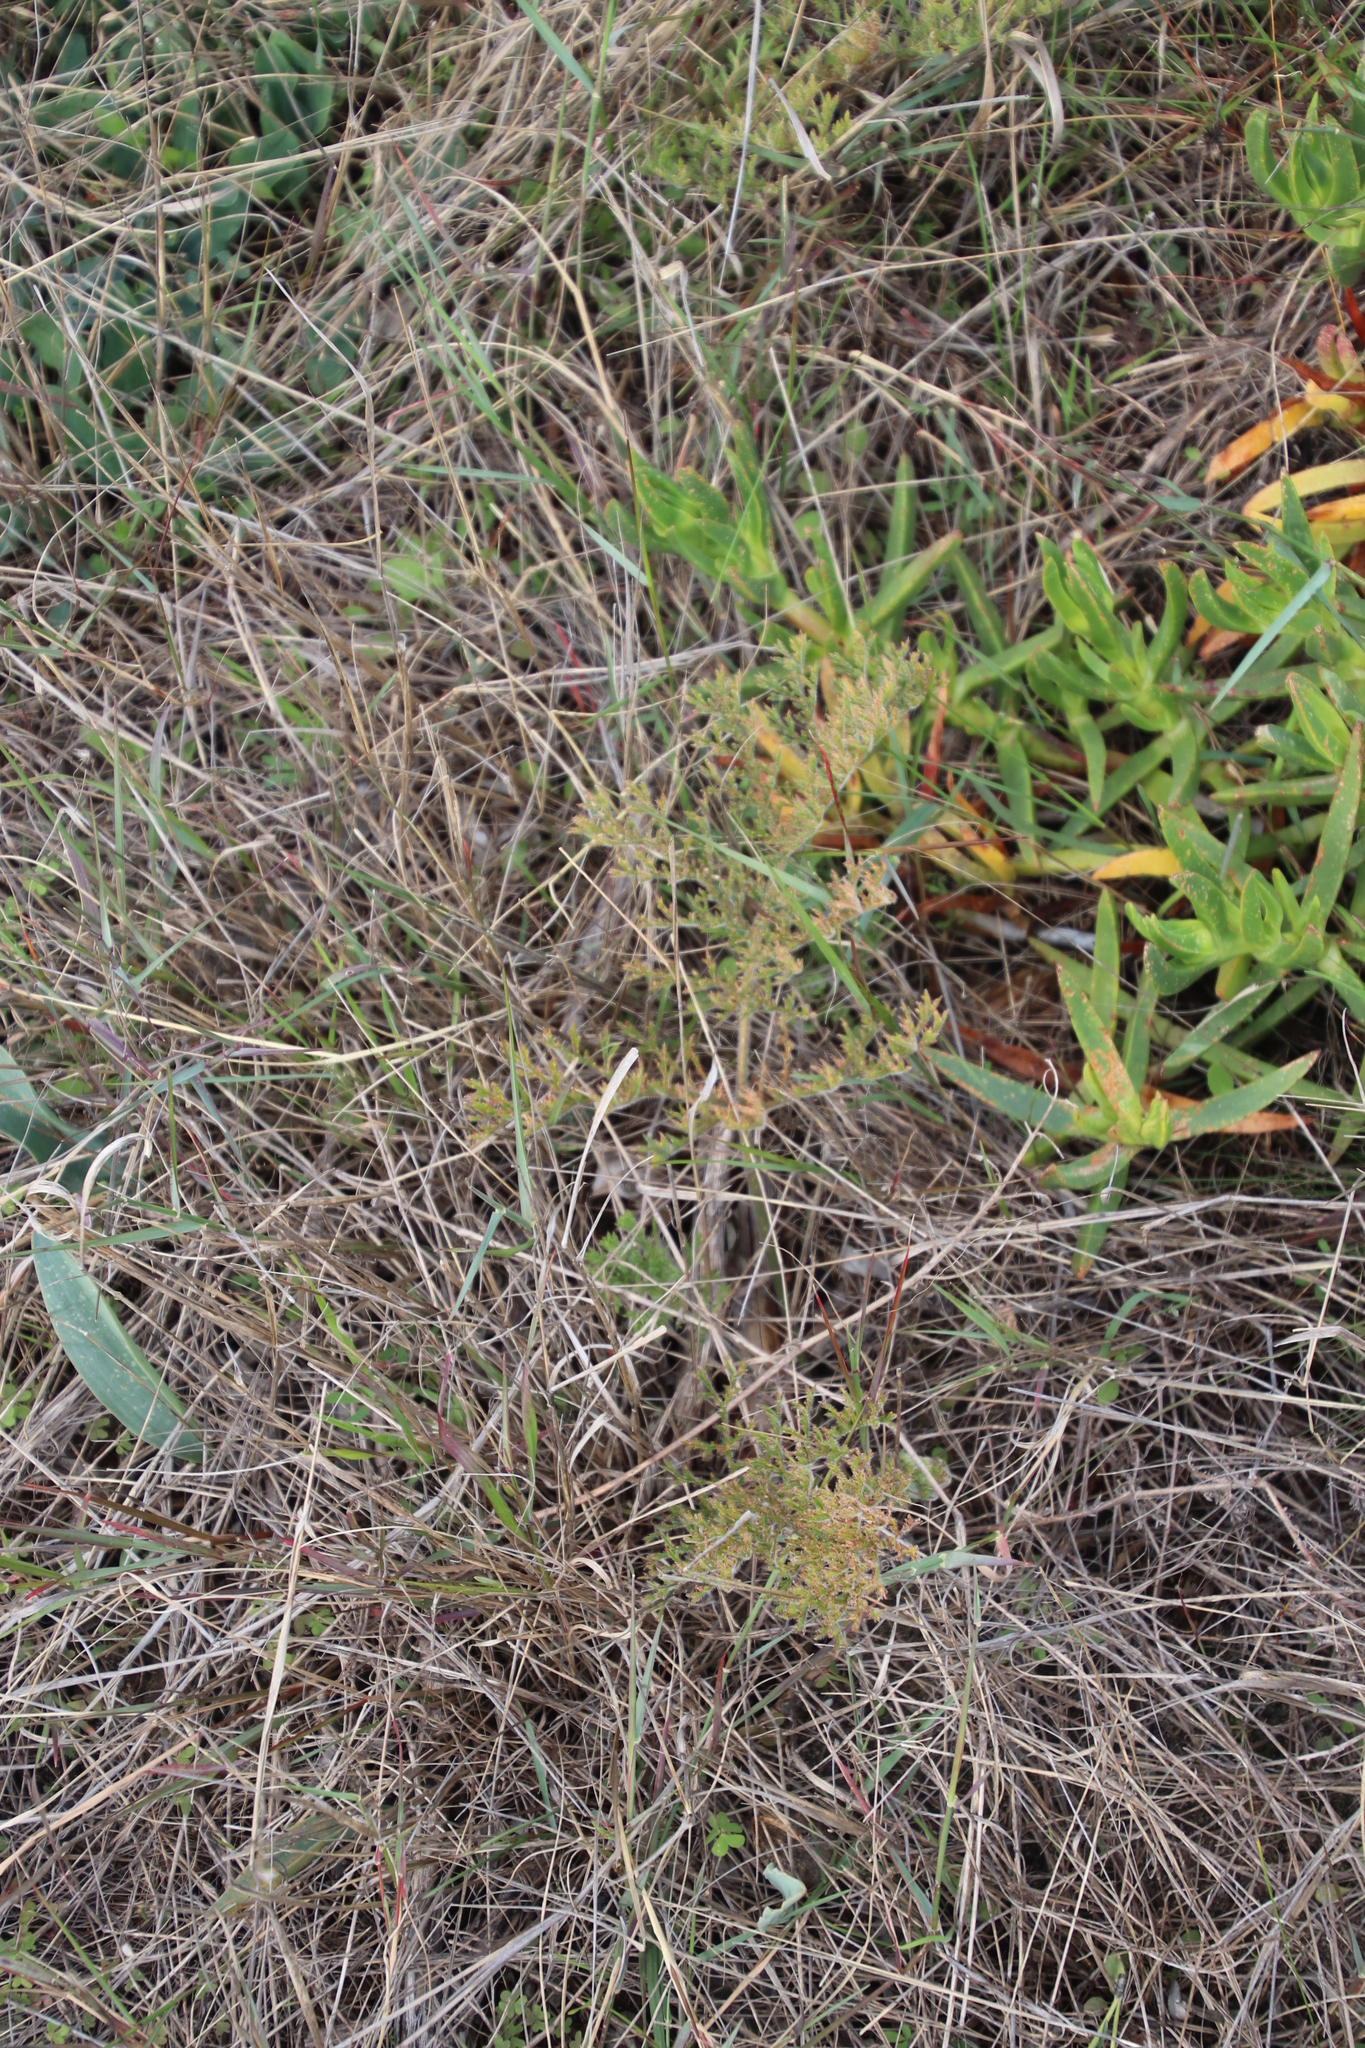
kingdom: Plantae
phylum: Tracheophyta
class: Magnoliopsida
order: Geraniales
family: Geraniaceae
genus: Pelargonium
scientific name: Pelargonium triste
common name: Night-scent pelargonium
